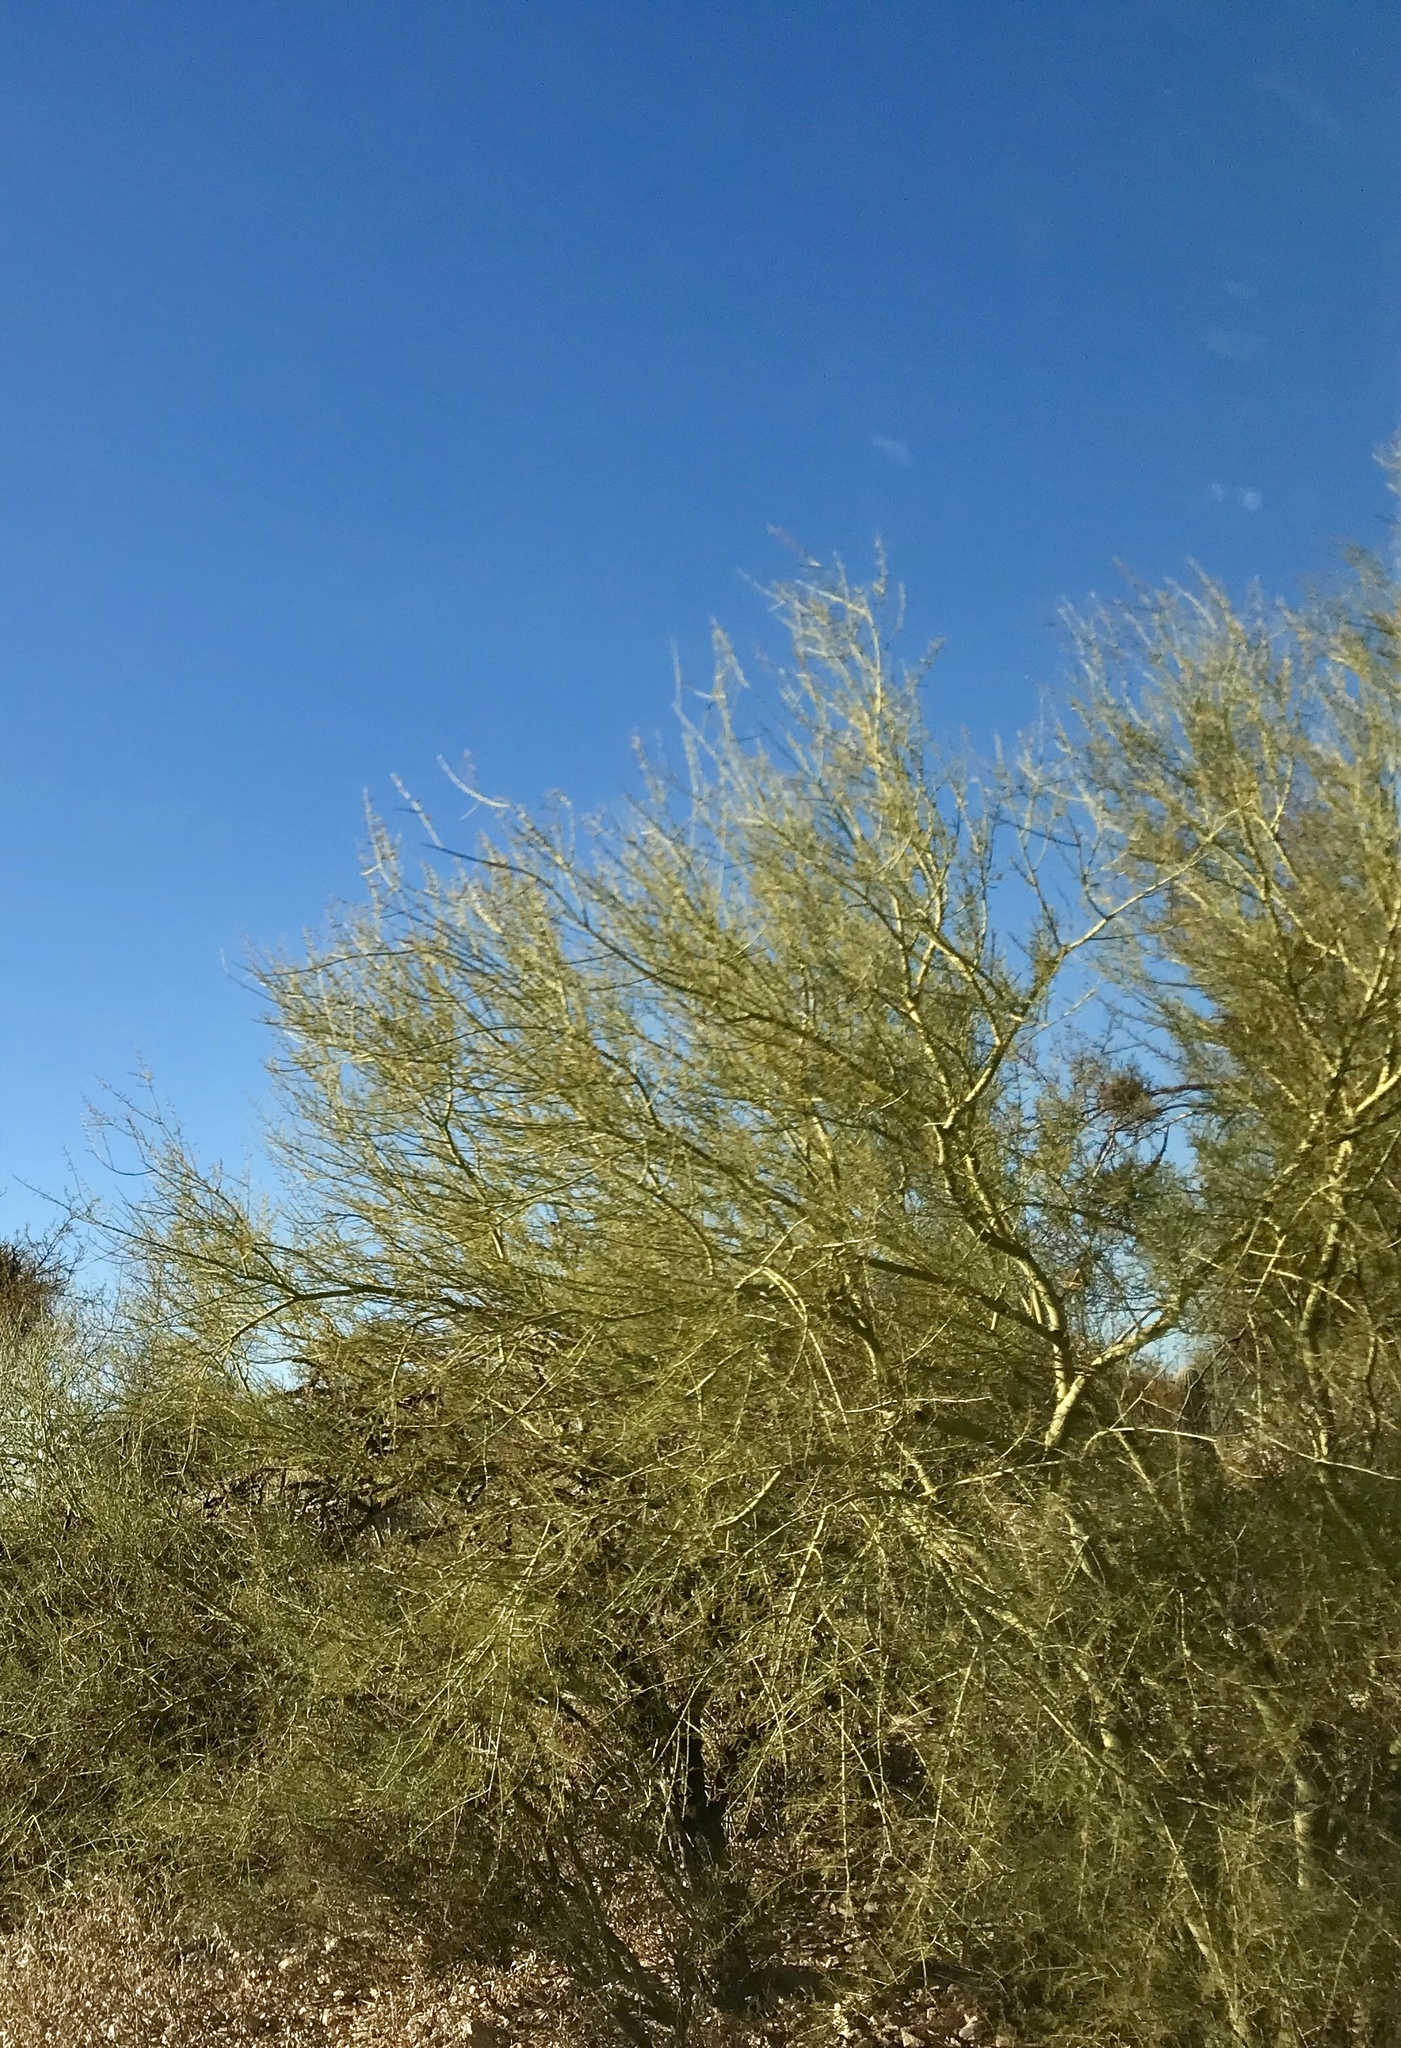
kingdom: Plantae
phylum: Tracheophyta
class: Magnoliopsida
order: Fabales
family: Fabaceae
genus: Parkinsonia
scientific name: Parkinsonia microphylla
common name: Yellow paloverde
